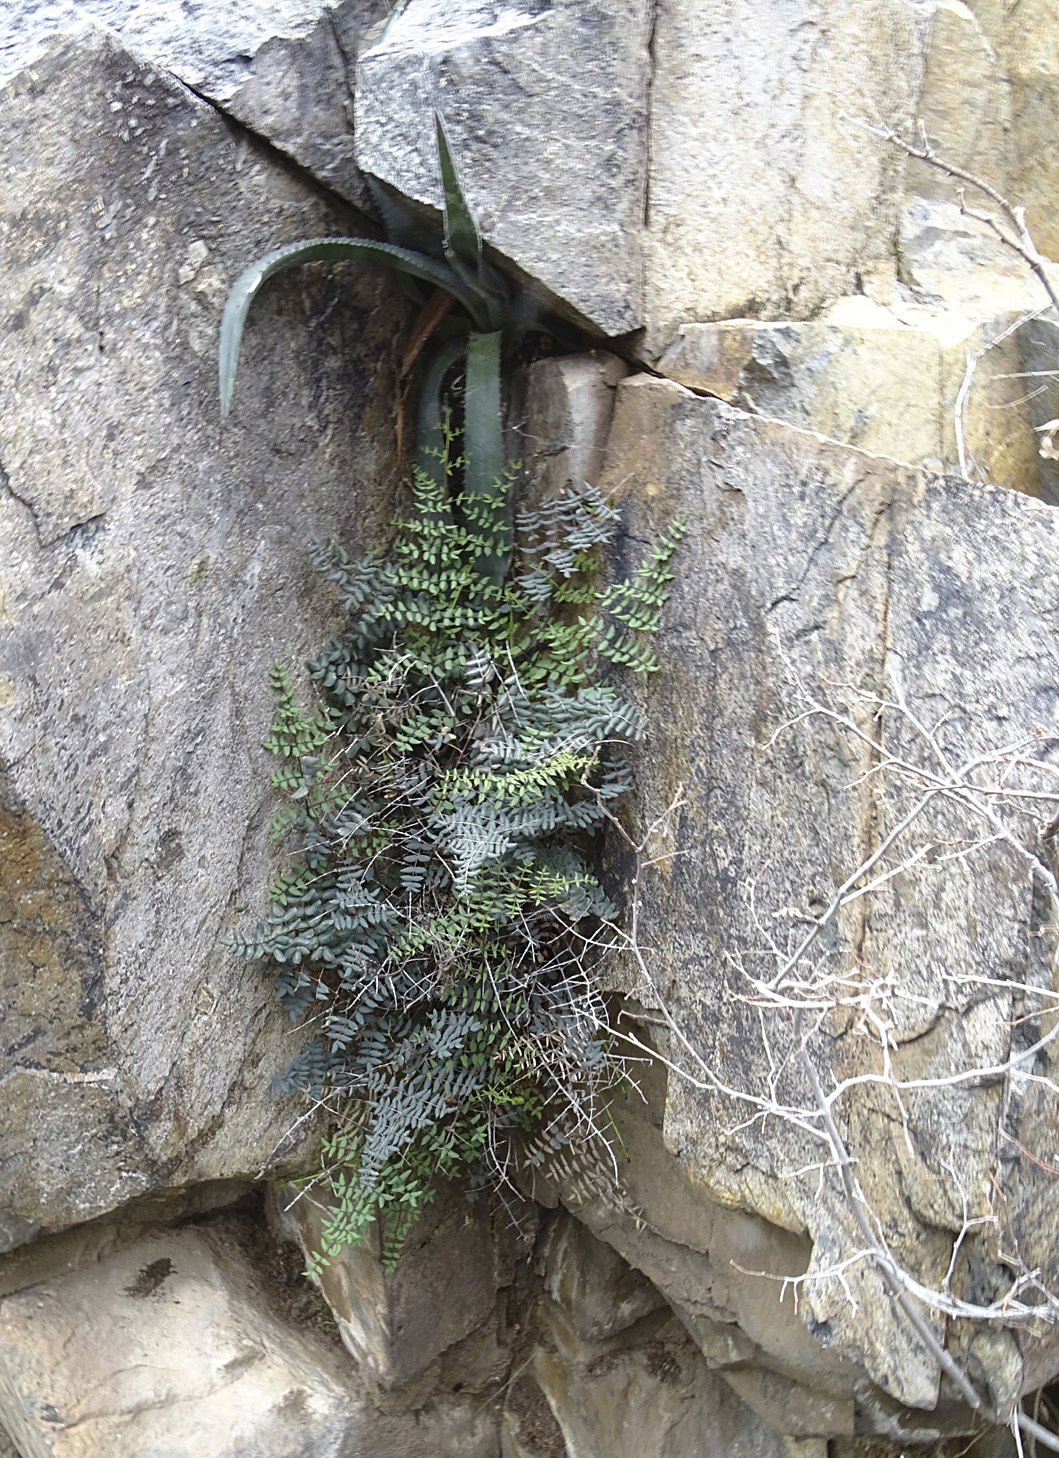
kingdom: Plantae
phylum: Tracheophyta
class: Polypodiopsida
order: Polypodiales
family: Pteridaceae
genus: Pellaea
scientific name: Pellaea truncata
